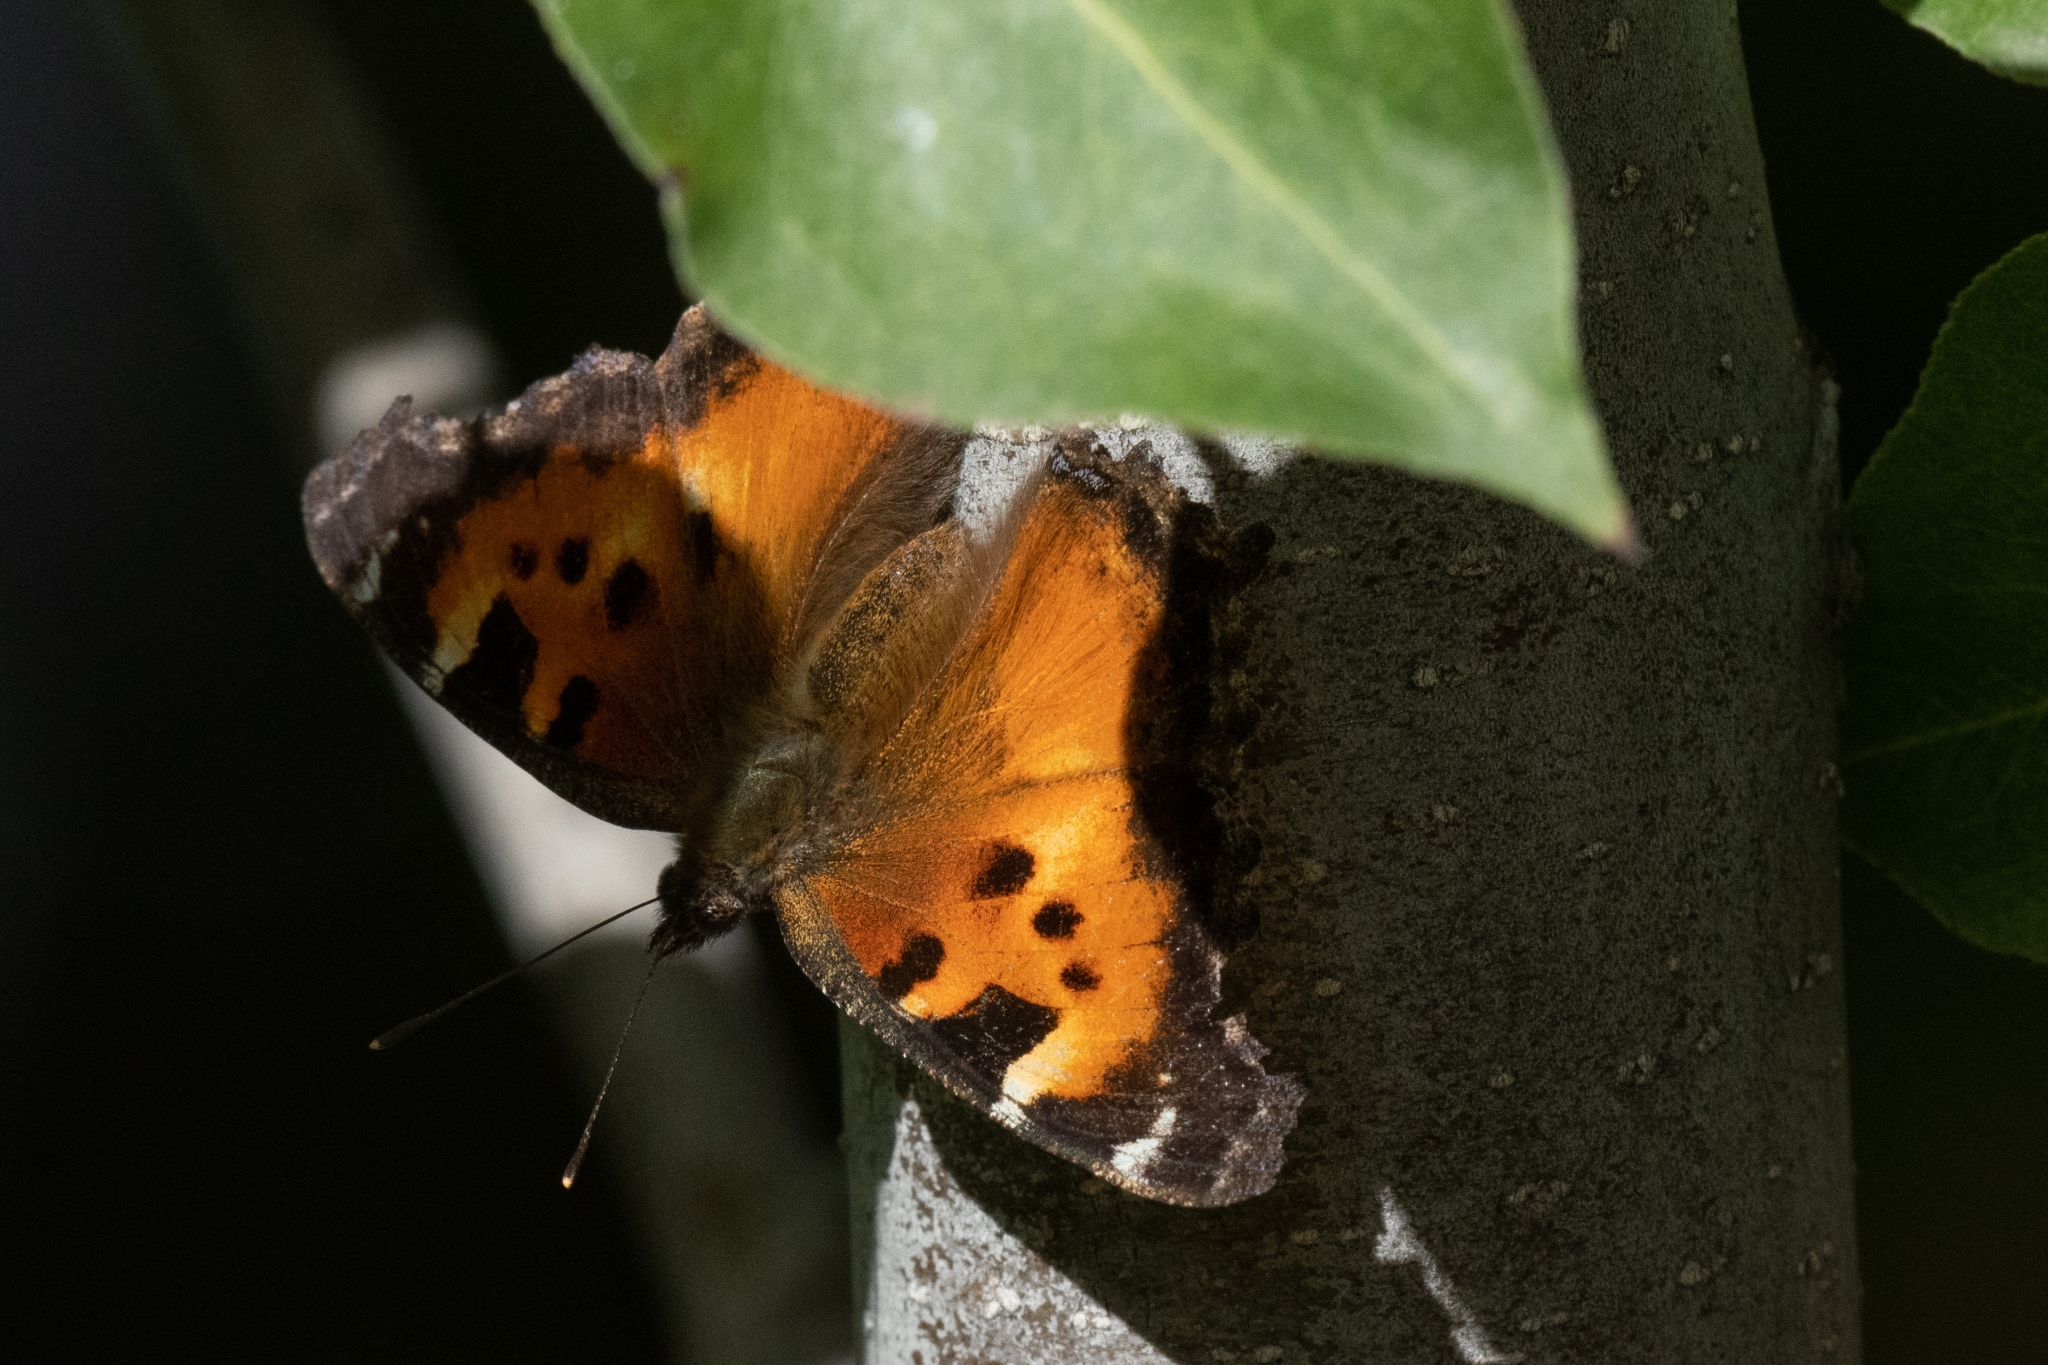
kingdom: Animalia
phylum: Arthropoda
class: Insecta
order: Lepidoptera
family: Nymphalidae
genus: Nymphalis
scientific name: Nymphalis californica
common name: California tortoiseshell
